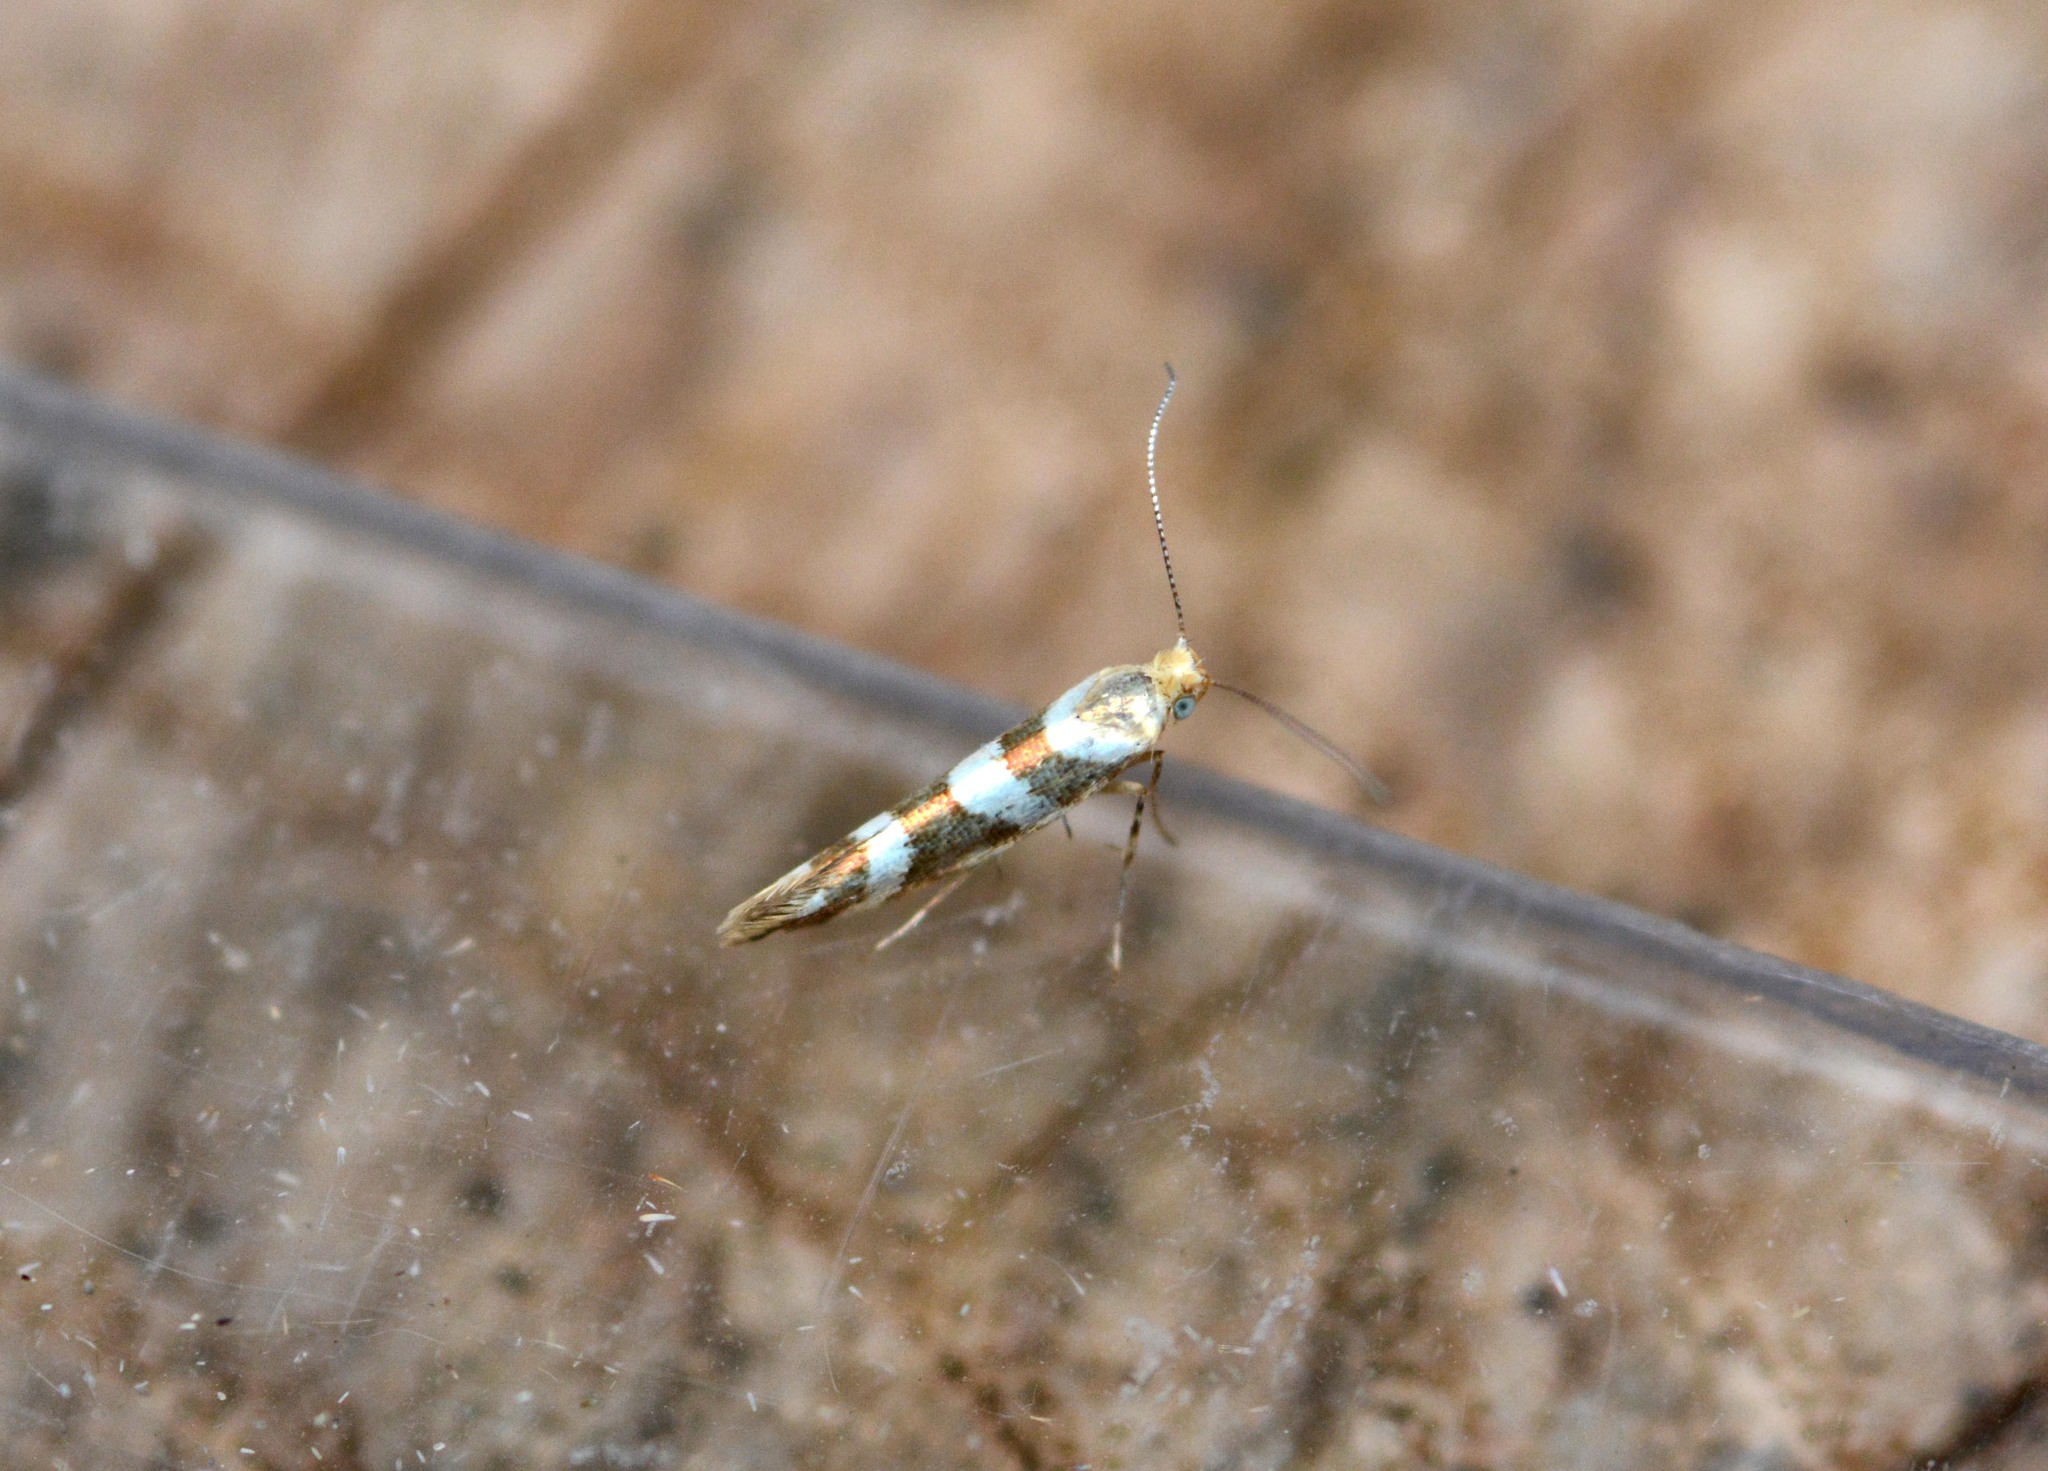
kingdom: Animalia
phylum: Arthropoda
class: Insecta
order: Lepidoptera
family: Argyresthiidae
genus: Argyresthia
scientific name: Argyresthia goedartella
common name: Golden argent
